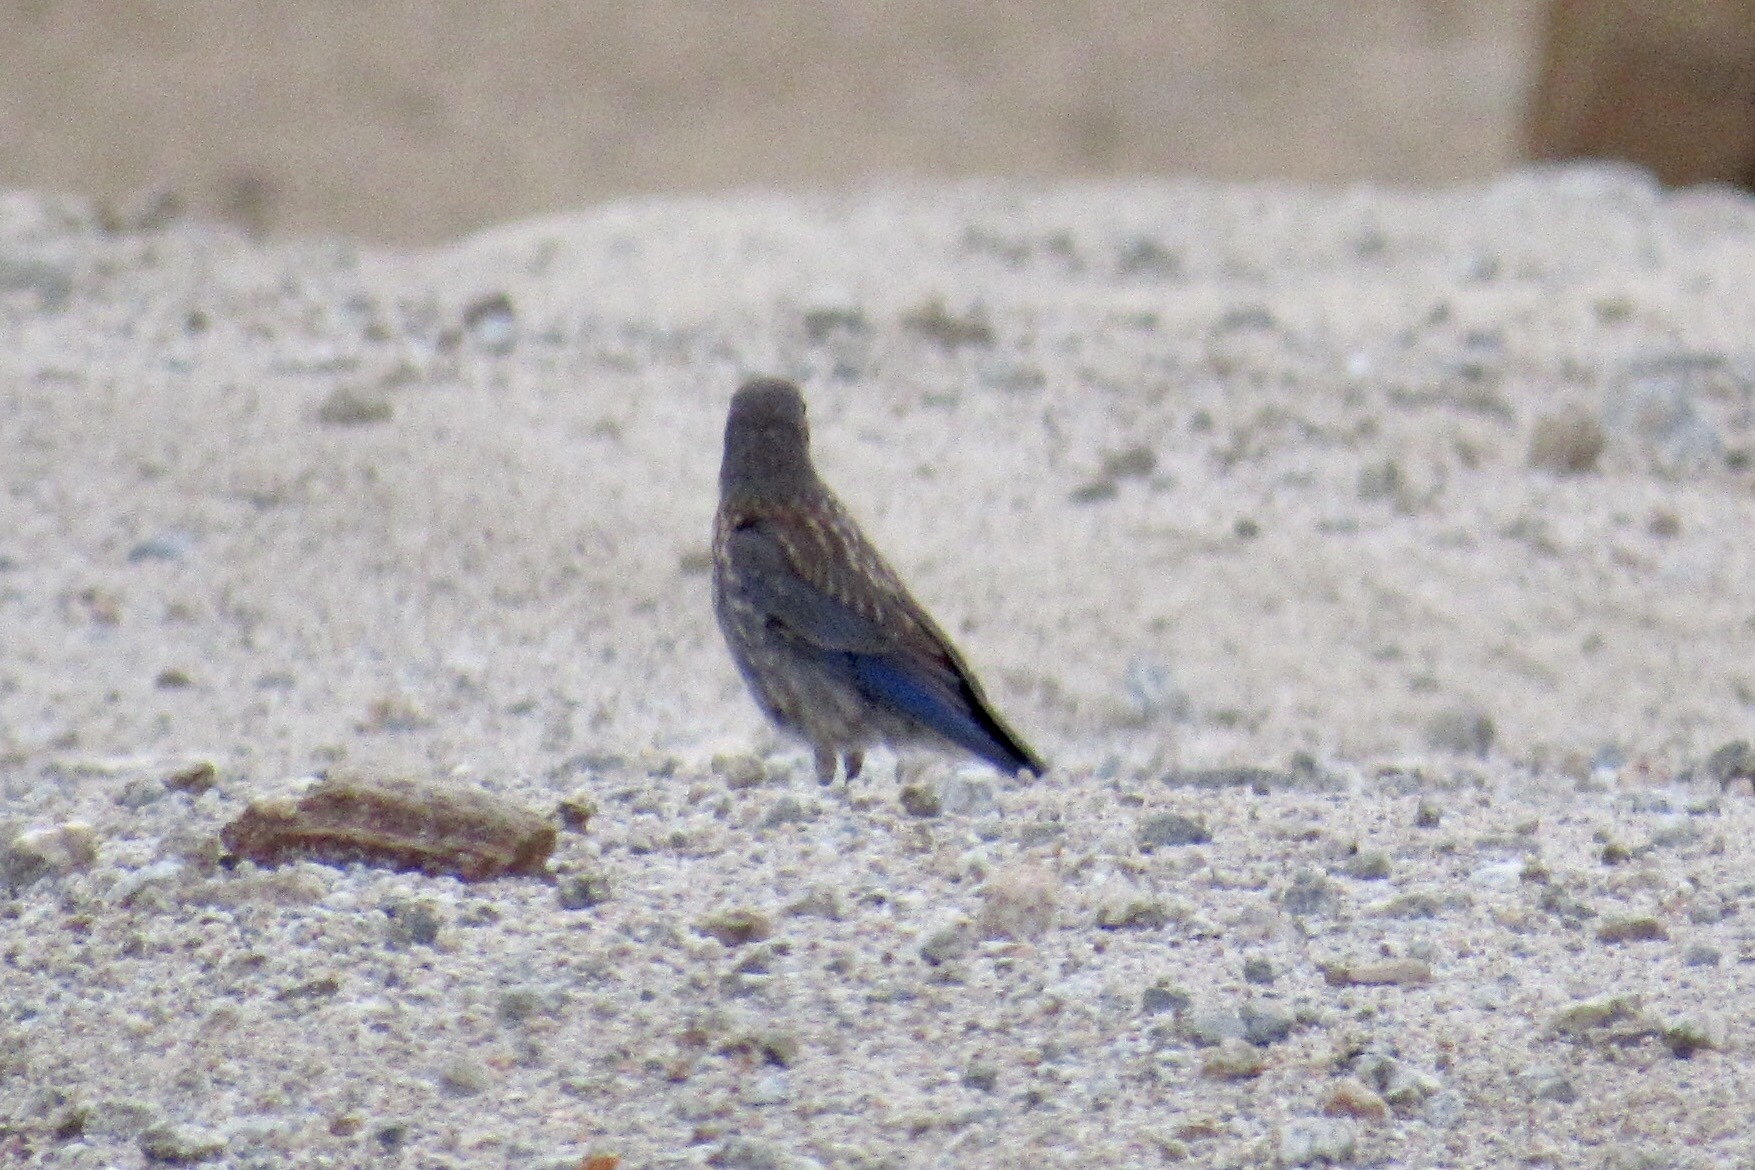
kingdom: Animalia
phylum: Chordata
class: Aves
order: Passeriformes
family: Turdidae
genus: Sialia
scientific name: Sialia mexicana
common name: Western bluebird
